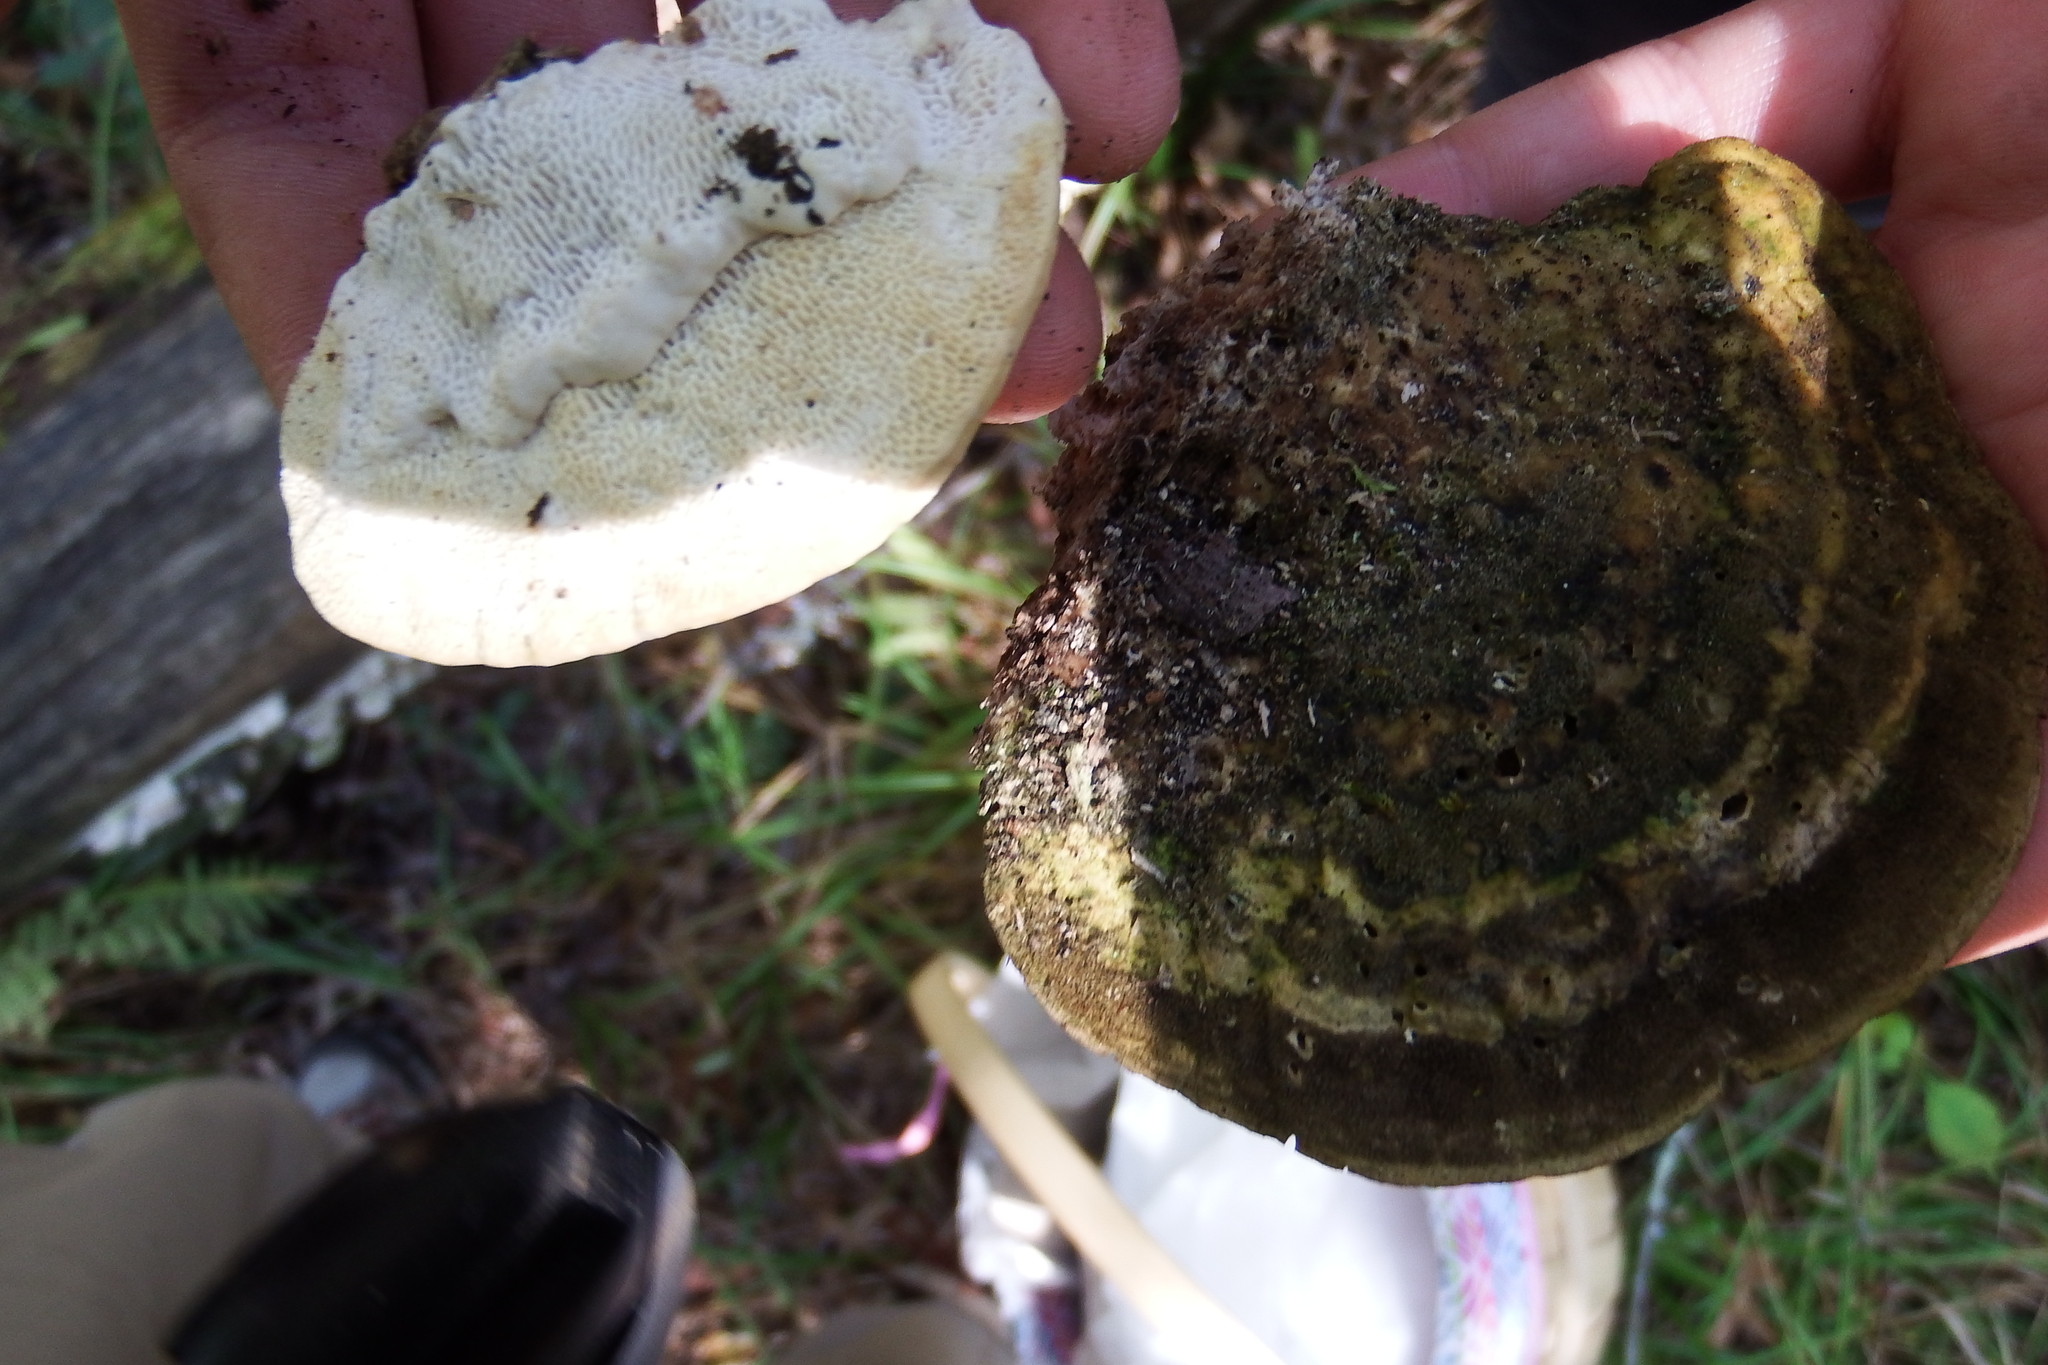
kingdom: Fungi
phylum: Basidiomycota
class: Agaricomycetes
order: Polyporales
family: Polyporaceae
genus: Trametes
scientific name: Trametes gibbosa
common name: Lumpy bracket
